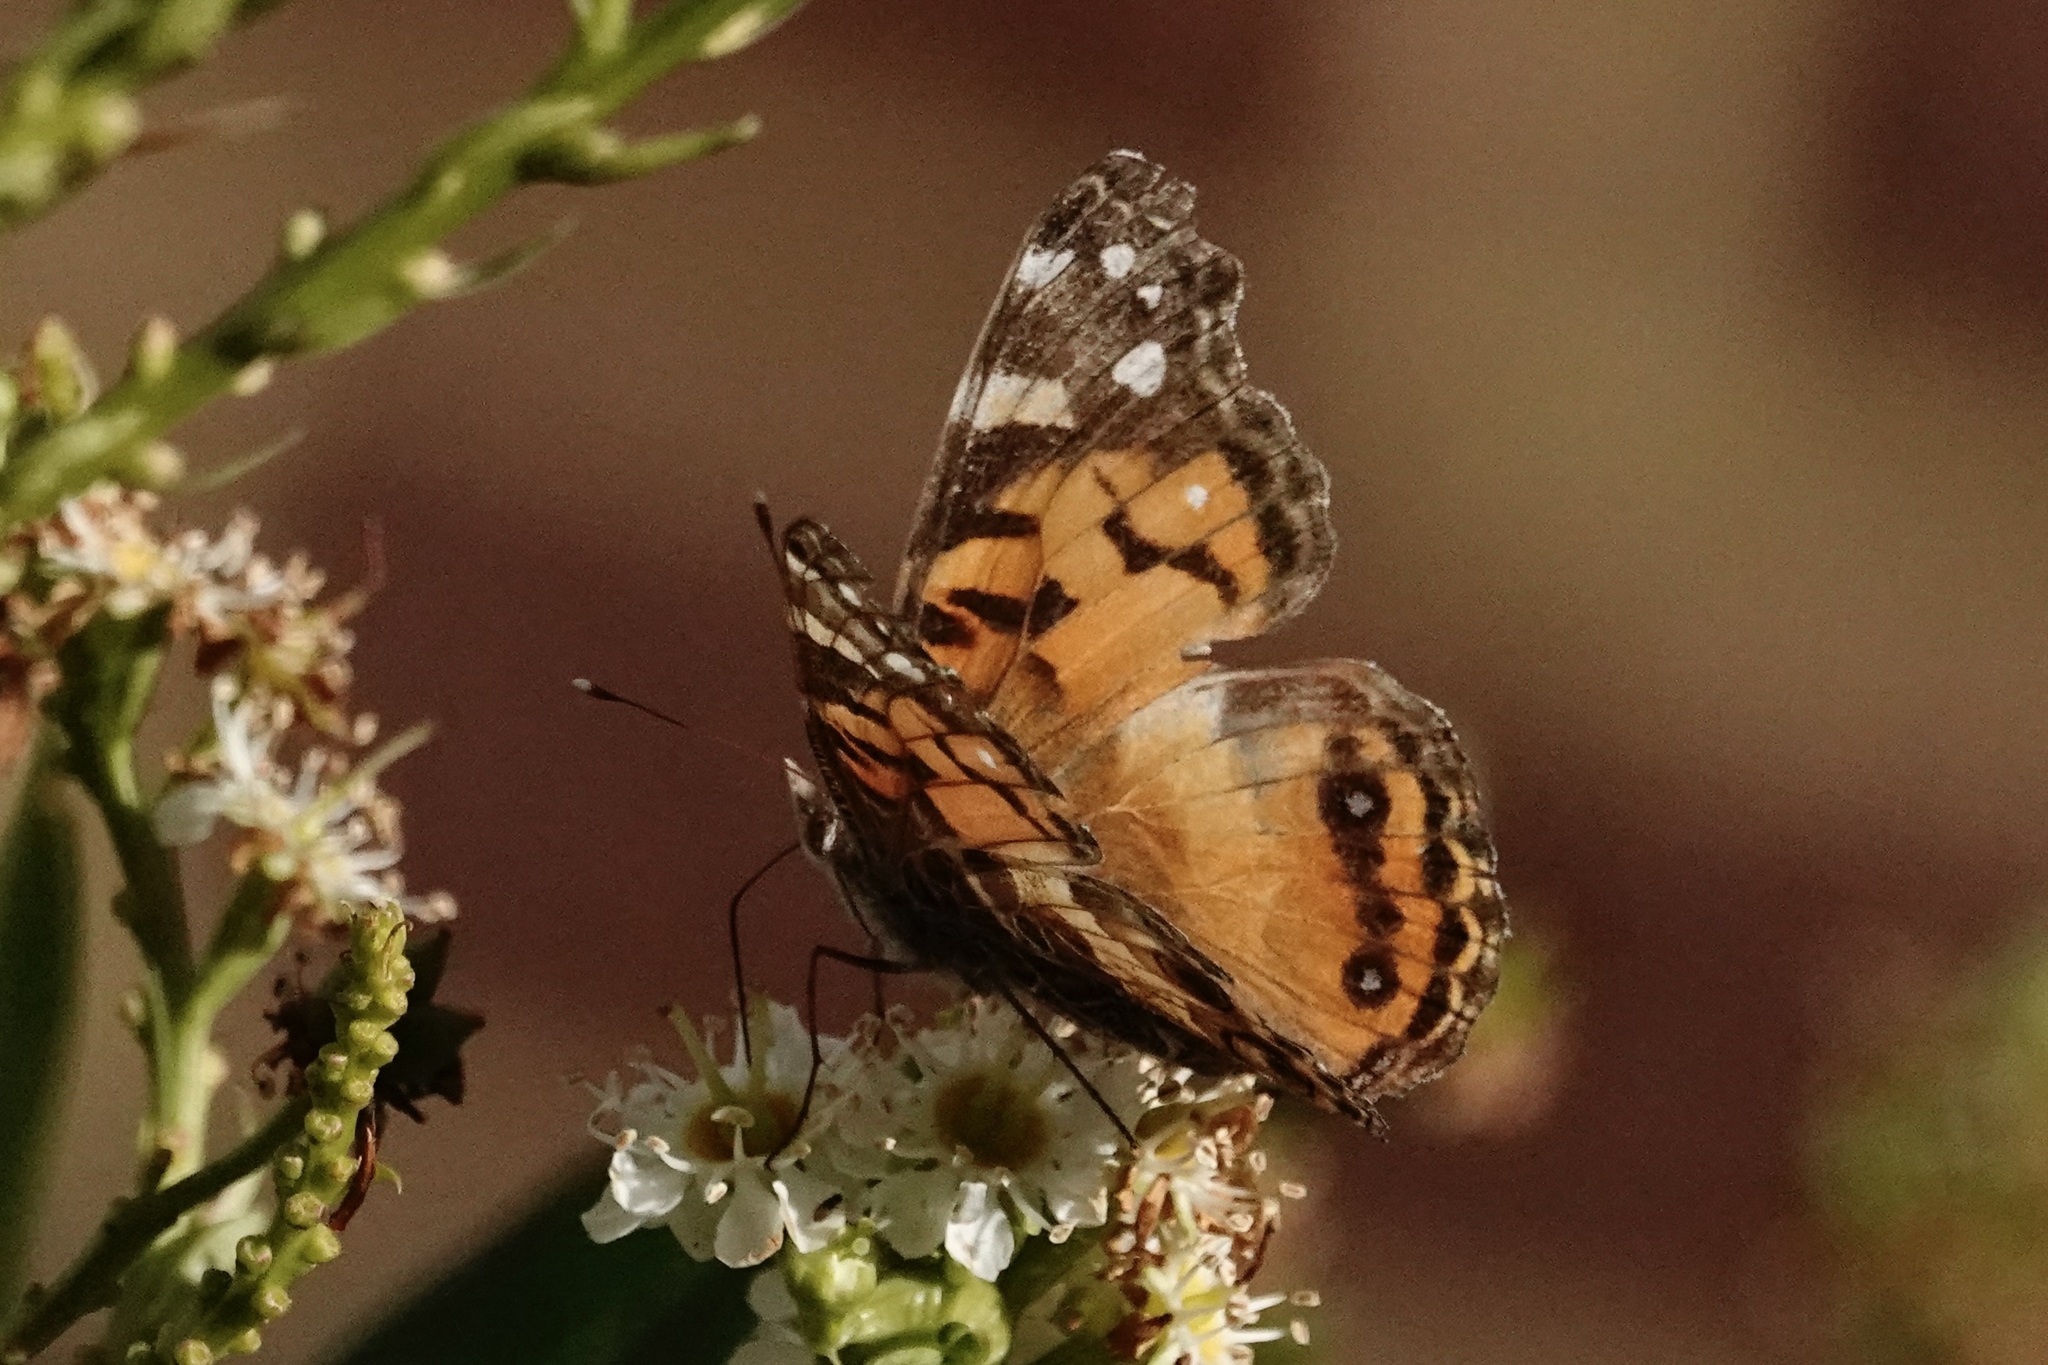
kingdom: Animalia
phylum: Arthropoda
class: Insecta
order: Lepidoptera
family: Nymphalidae
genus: Vanessa
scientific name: Vanessa virginiensis
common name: American lady
